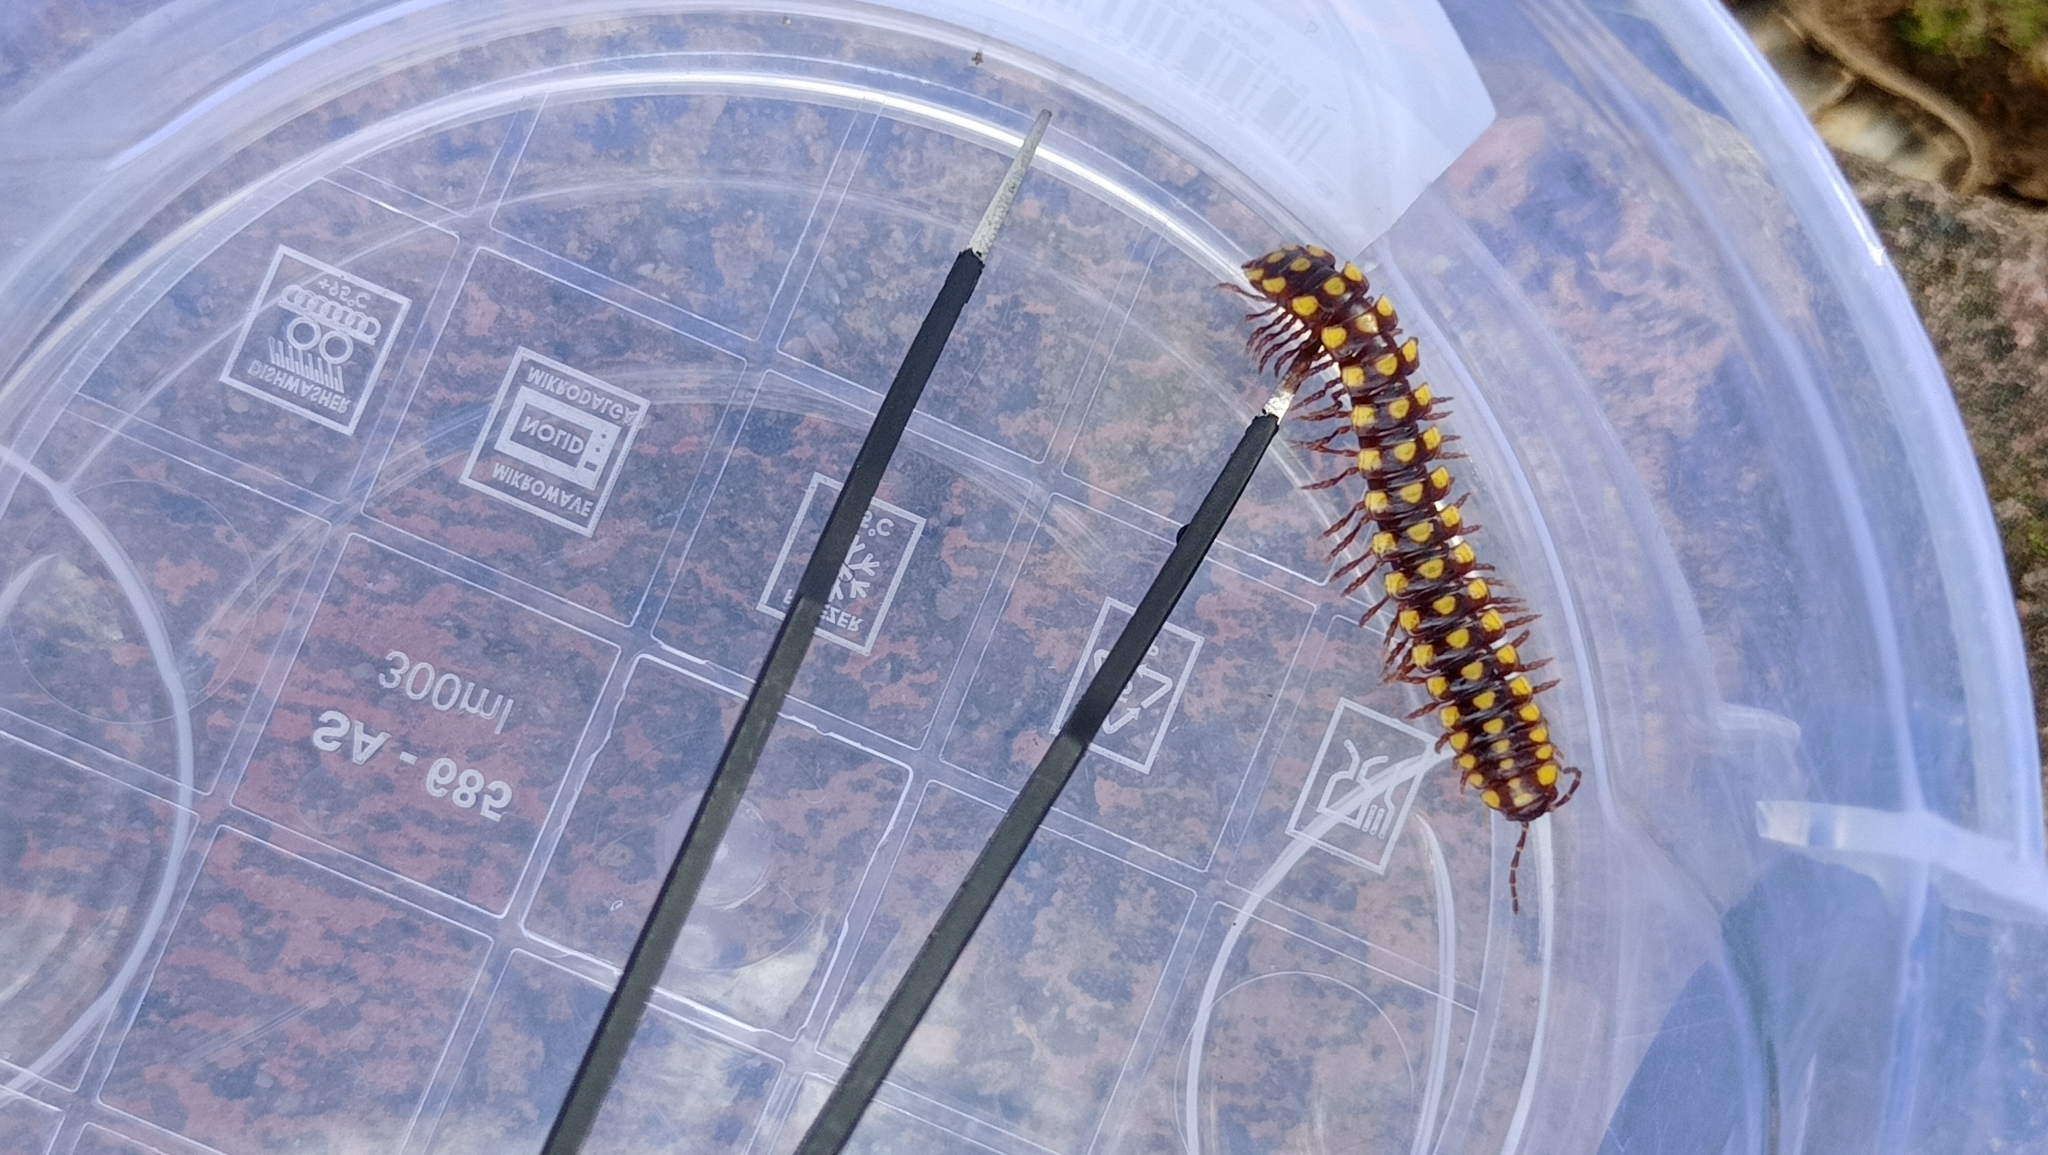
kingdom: Animalia
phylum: Arthropoda
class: Diplopoda
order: Polydesmida
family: Xystodesmidae
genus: Melaphe
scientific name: Melaphe vestita
